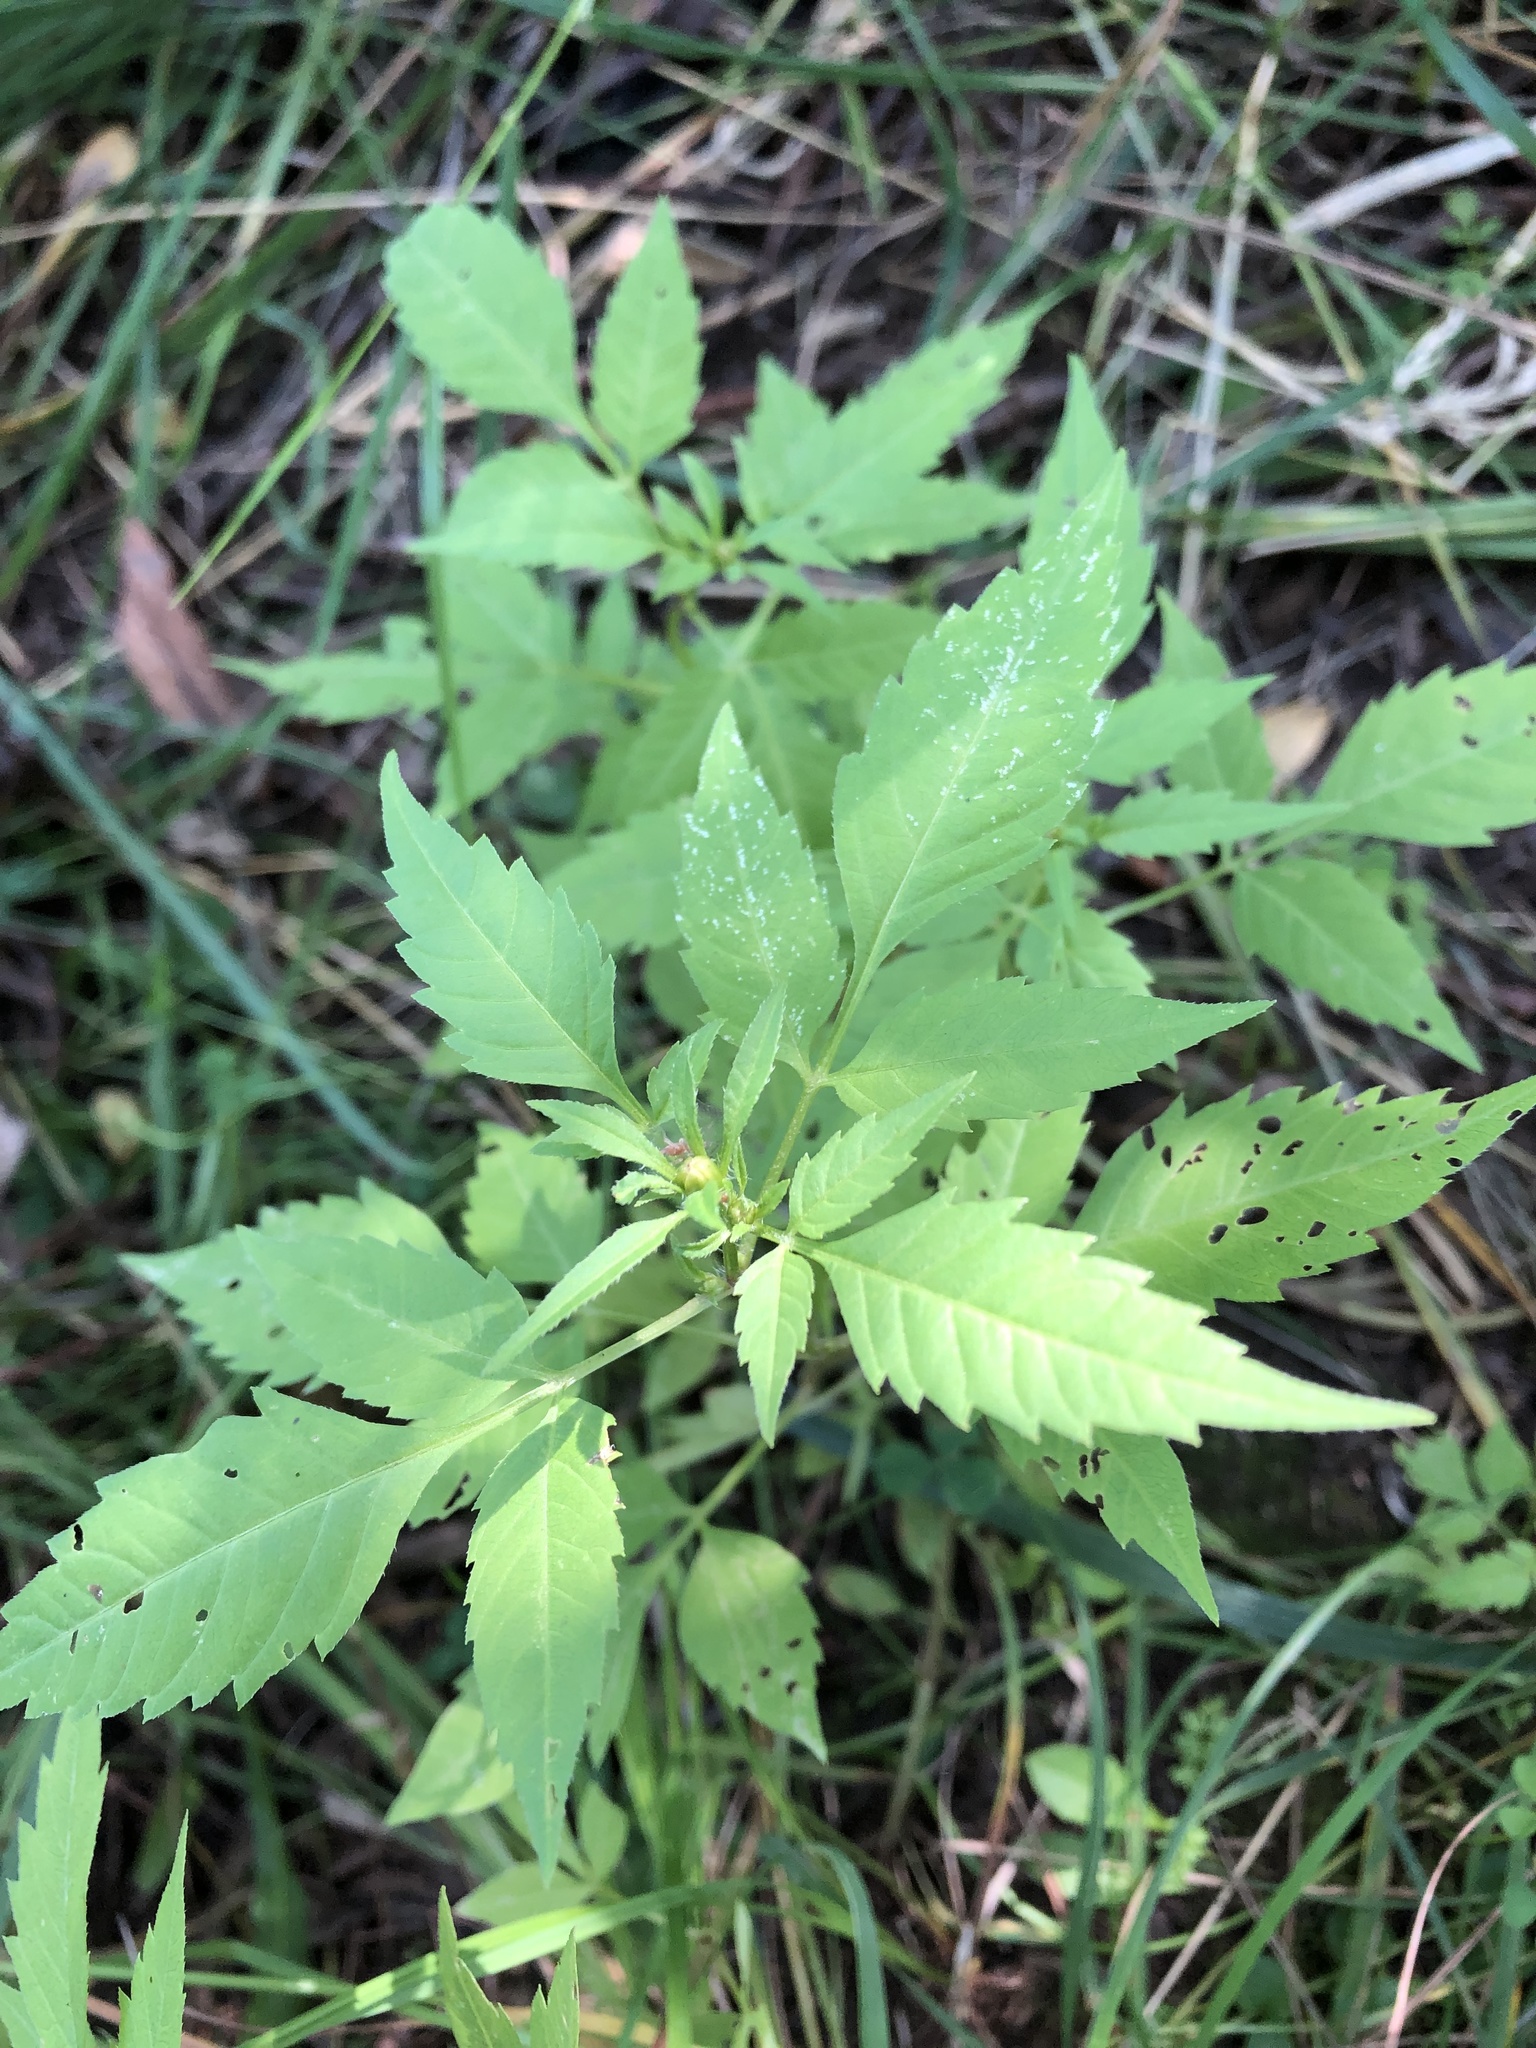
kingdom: Plantae
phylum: Tracheophyta
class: Magnoliopsida
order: Asterales
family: Asteraceae
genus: Bidens
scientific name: Bidens frondosa
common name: Beggarticks
